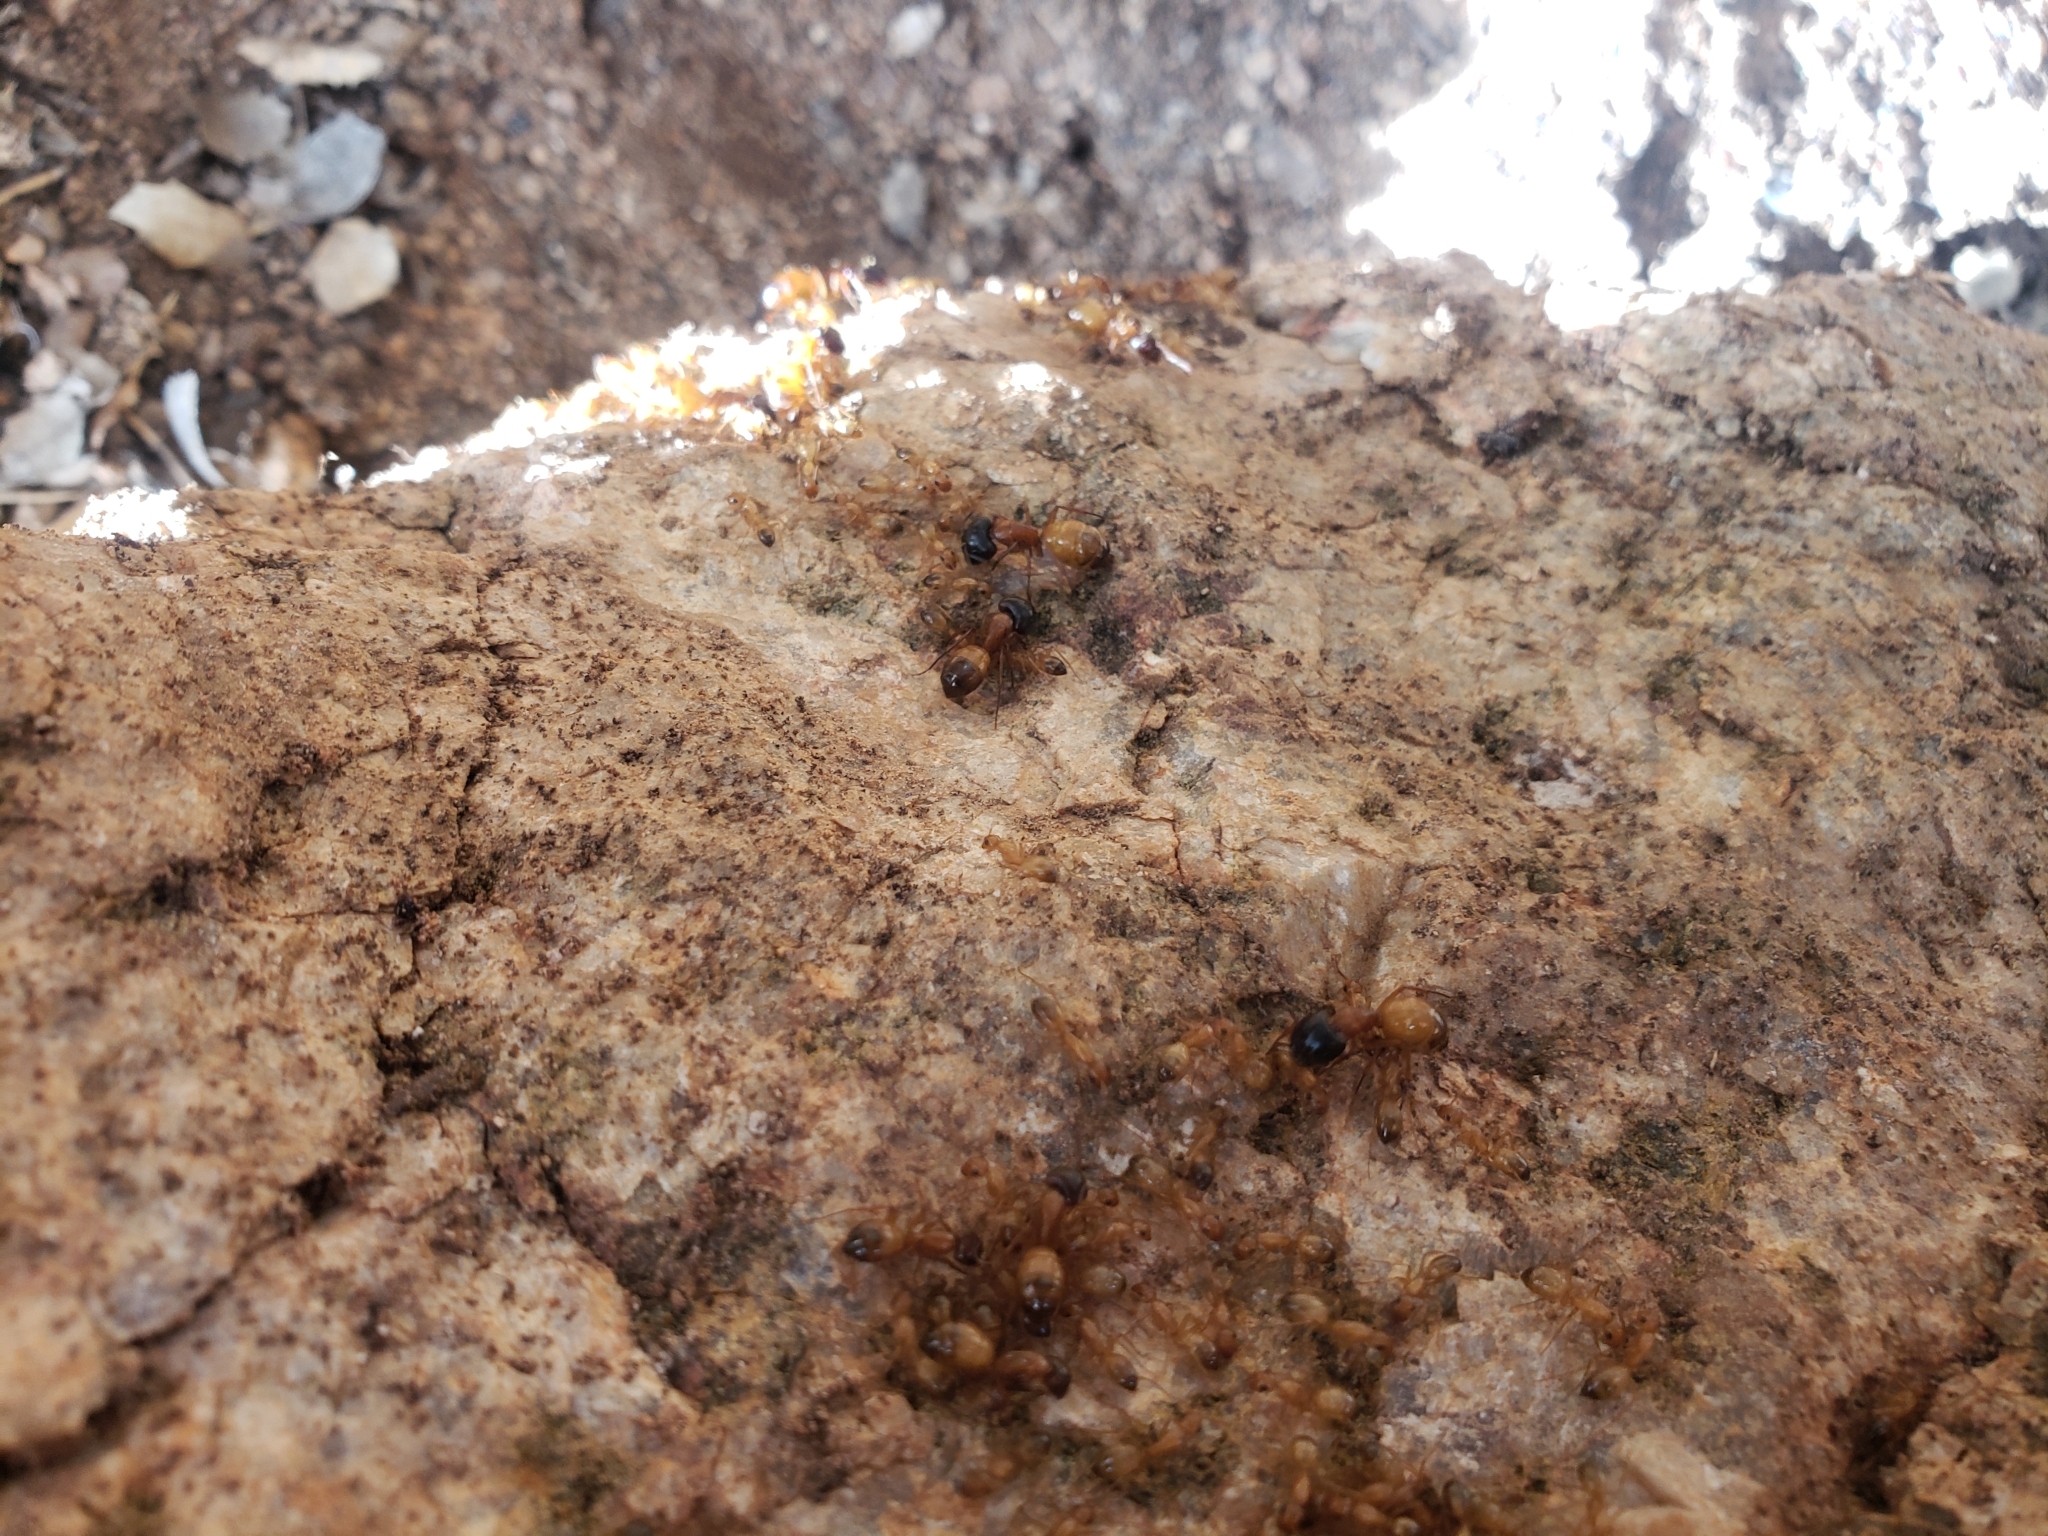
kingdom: Animalia
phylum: Arthropoda
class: Insecta
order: Hymenoptera
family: Formicidae
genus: Camponotus
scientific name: Camponotus sansabeanus
